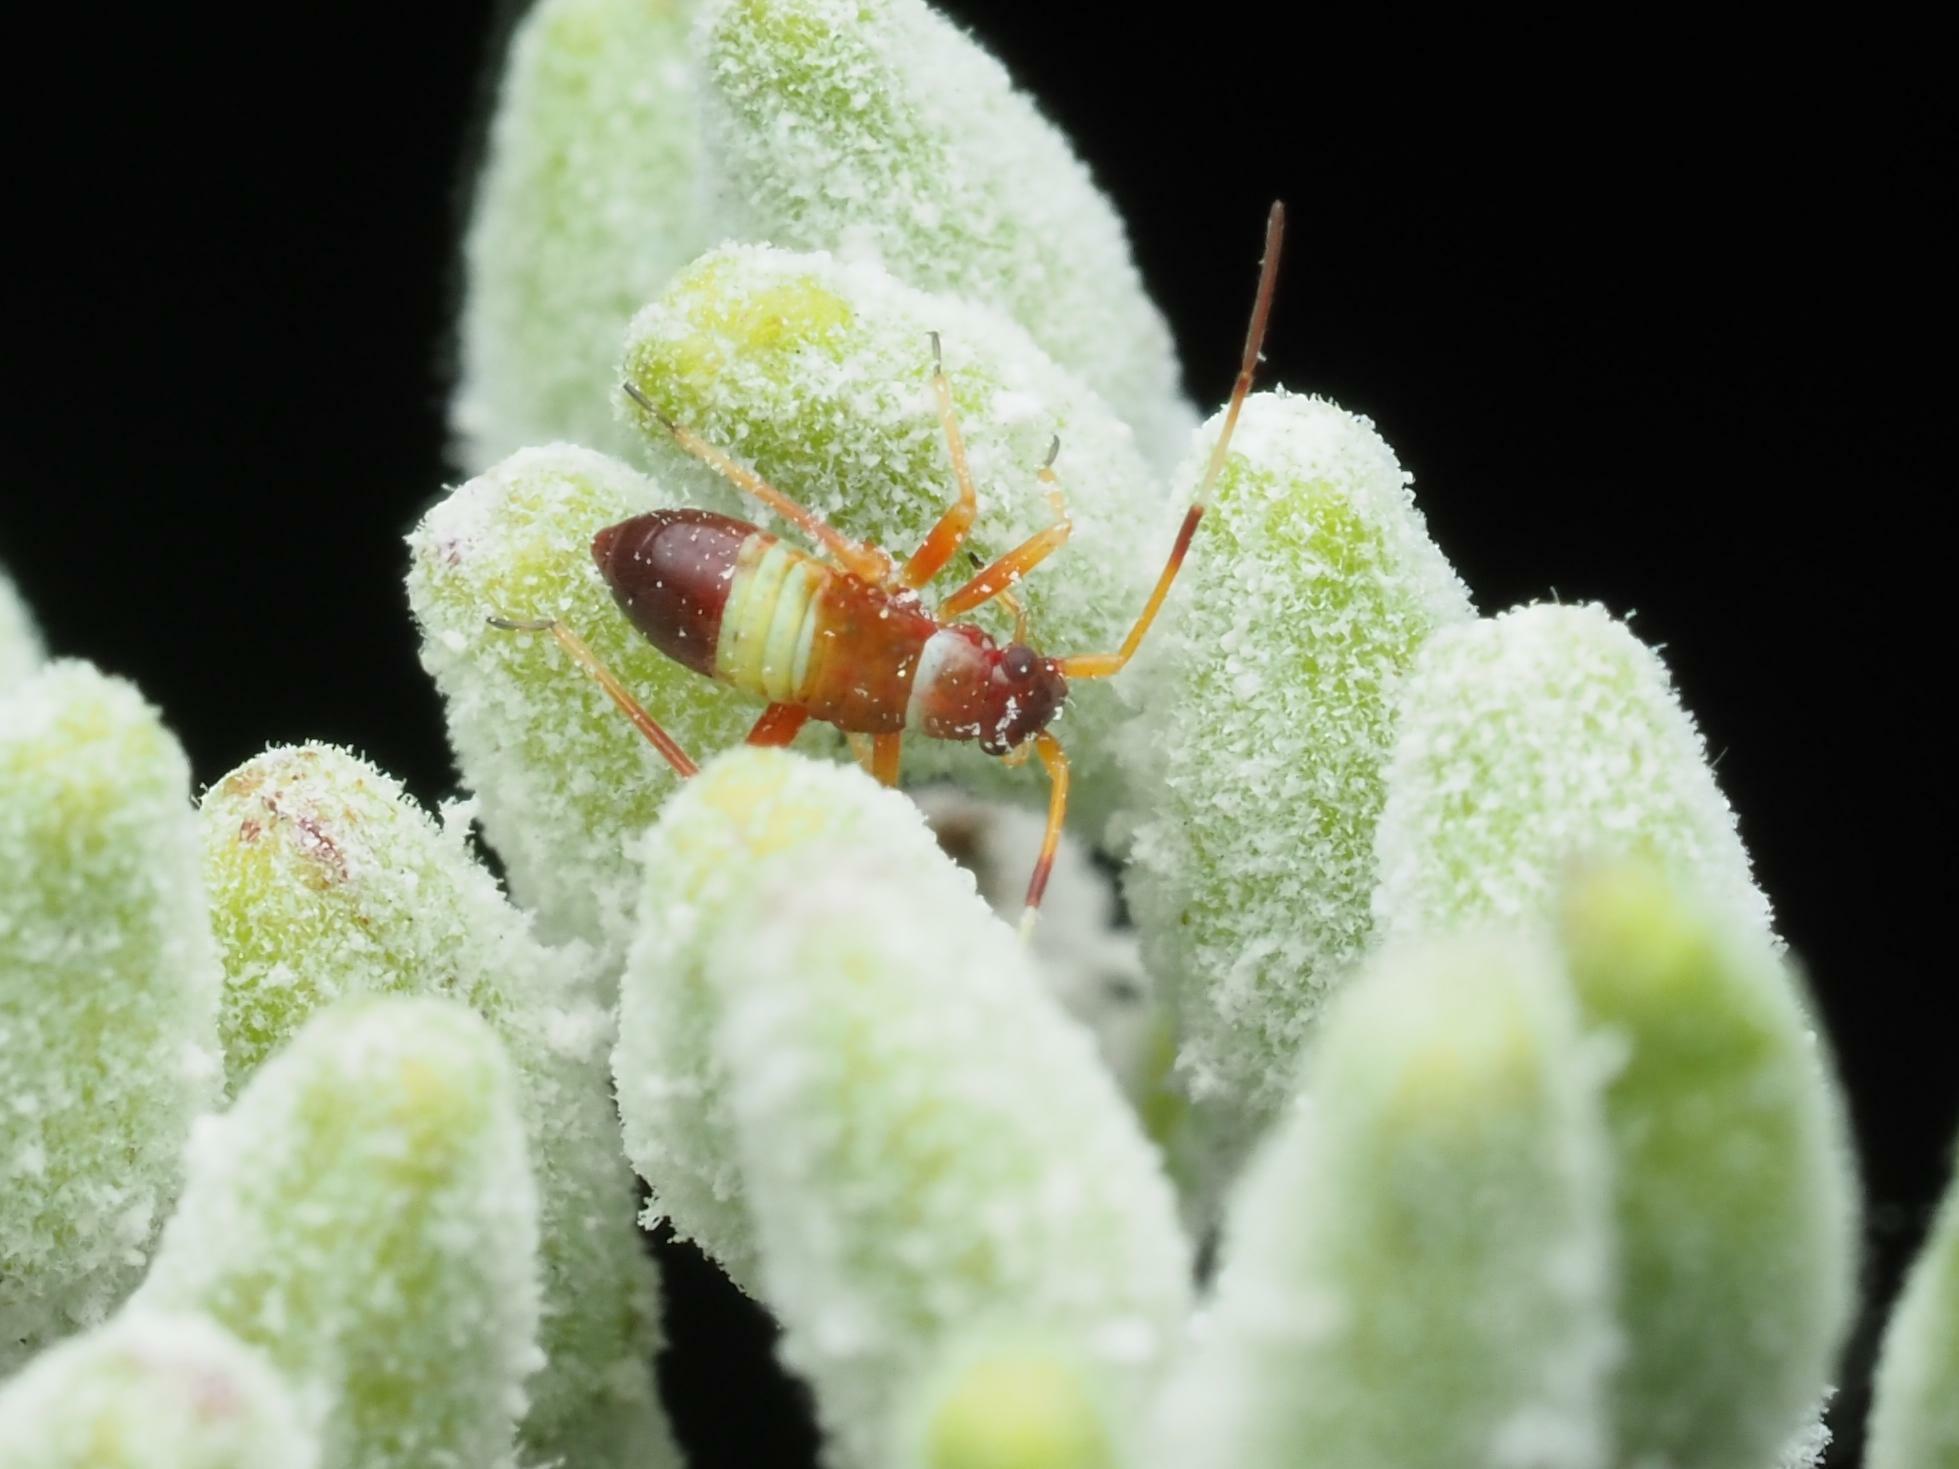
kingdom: Animalia
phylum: Arthropoda
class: Insecta
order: Hemiptera
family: Miridae
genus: Closterotomus
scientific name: Closterotomus biclavatus
